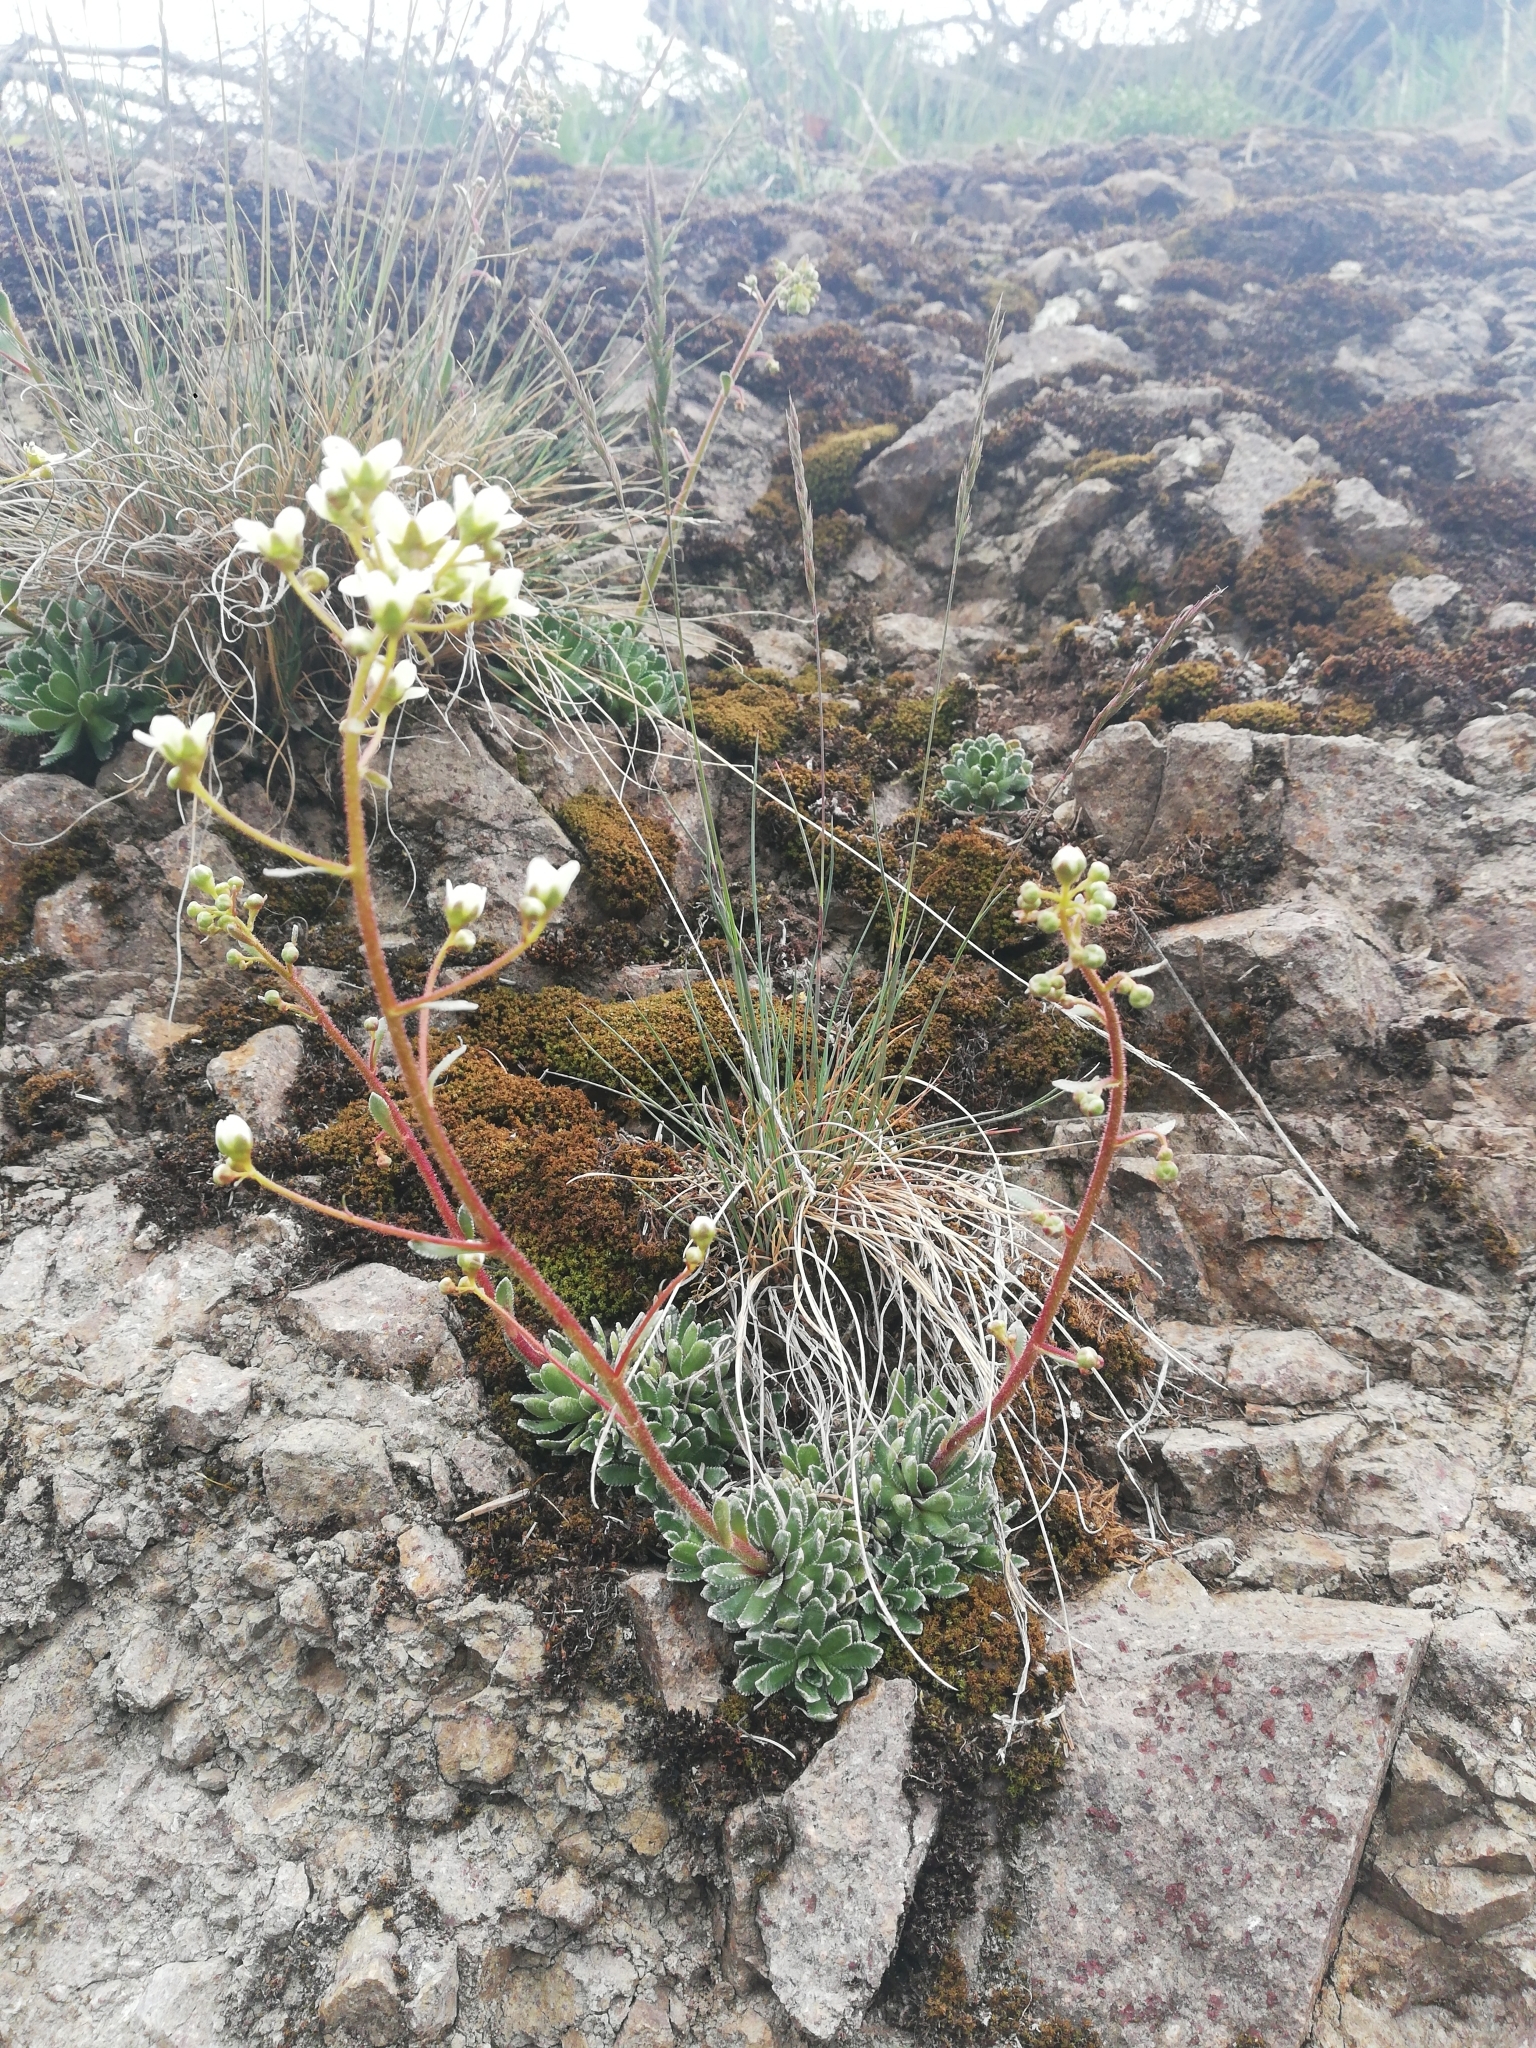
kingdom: Plantae
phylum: Tracheophyta
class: Magnoliopsida
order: Saxifragales
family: Saxifragaceae
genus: Saxifraga
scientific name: Saxifraga paniculata
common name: Livelong saxifrage
